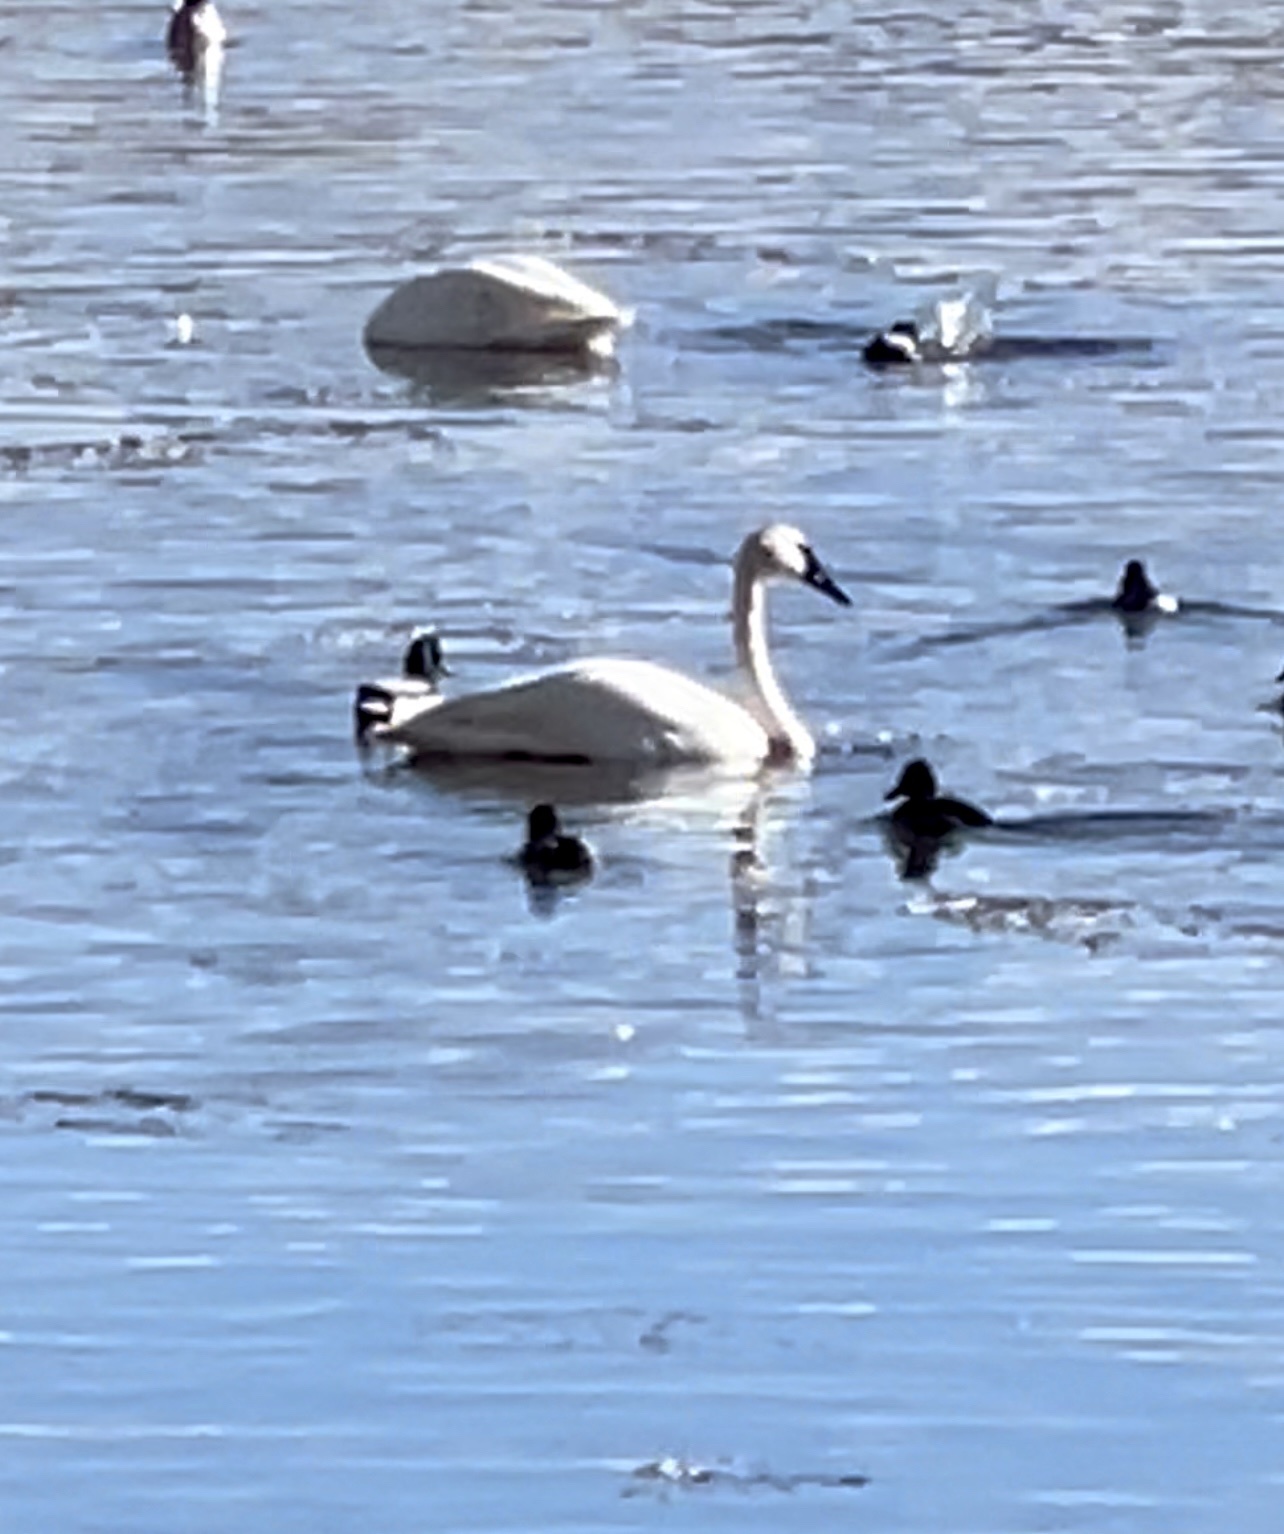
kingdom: Animalia
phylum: Chordata
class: Aves
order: Anseriformes
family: Anatidae
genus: Cygnus
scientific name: Cygnus buccinator
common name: Trumpeter swan
